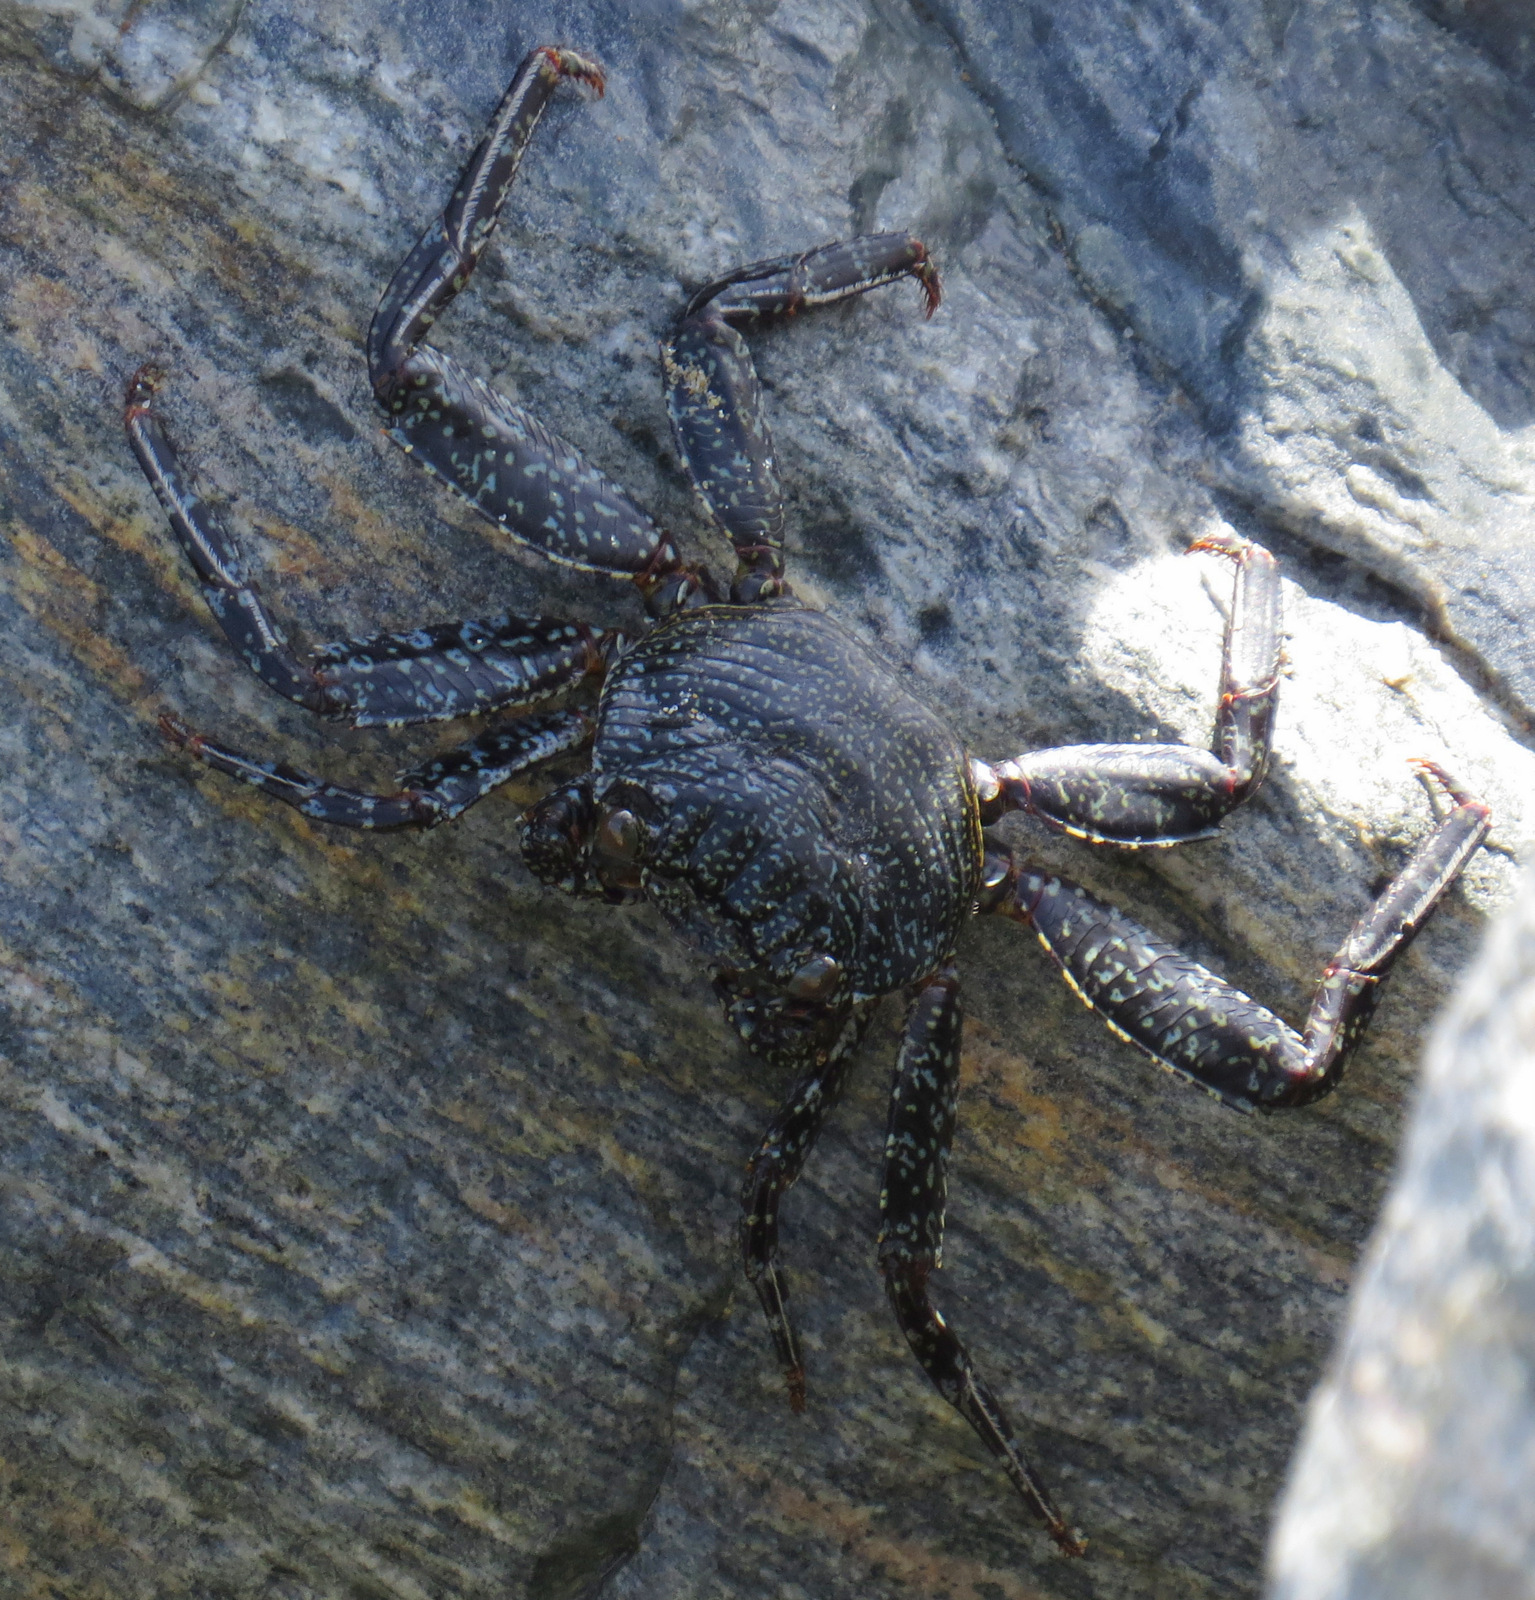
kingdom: Animalia
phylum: Arthropoda
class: Malacostraca
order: Decapoda
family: Grapsidae
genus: Grapsus
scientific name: Grapsus grapsus
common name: Sally lightfoot
